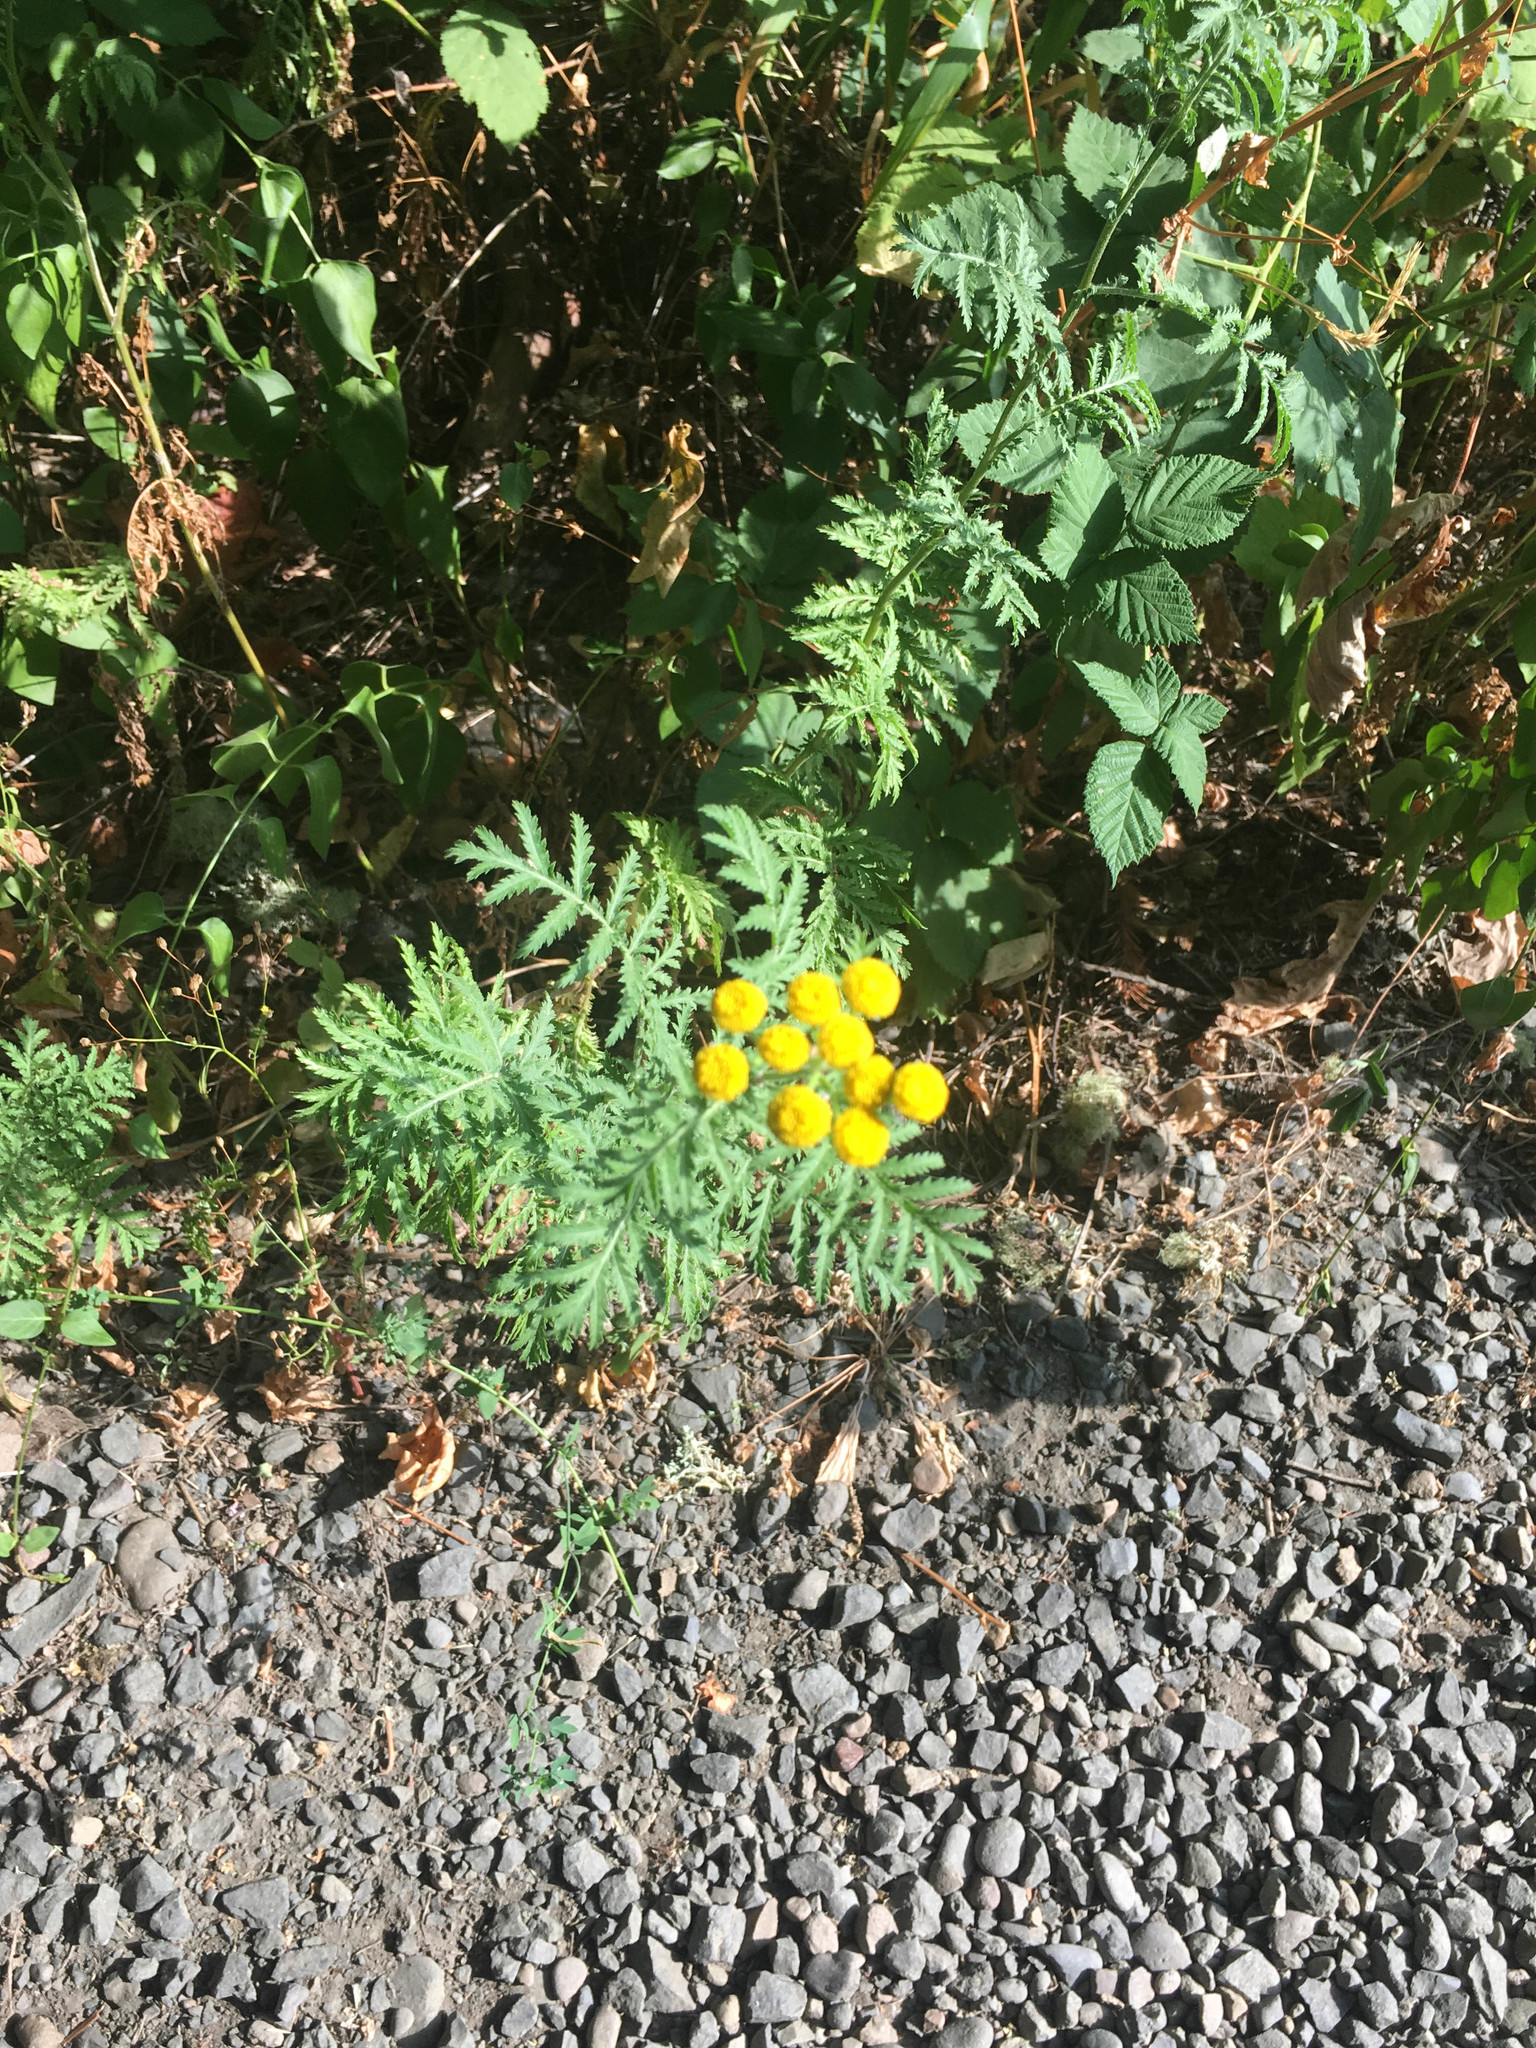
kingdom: Plantae
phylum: Tracheophyta
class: Magnoliopsida
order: Asterales
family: Asteraceae
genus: Tanacetum
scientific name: Tanacetum vulgare
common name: Common tansy
